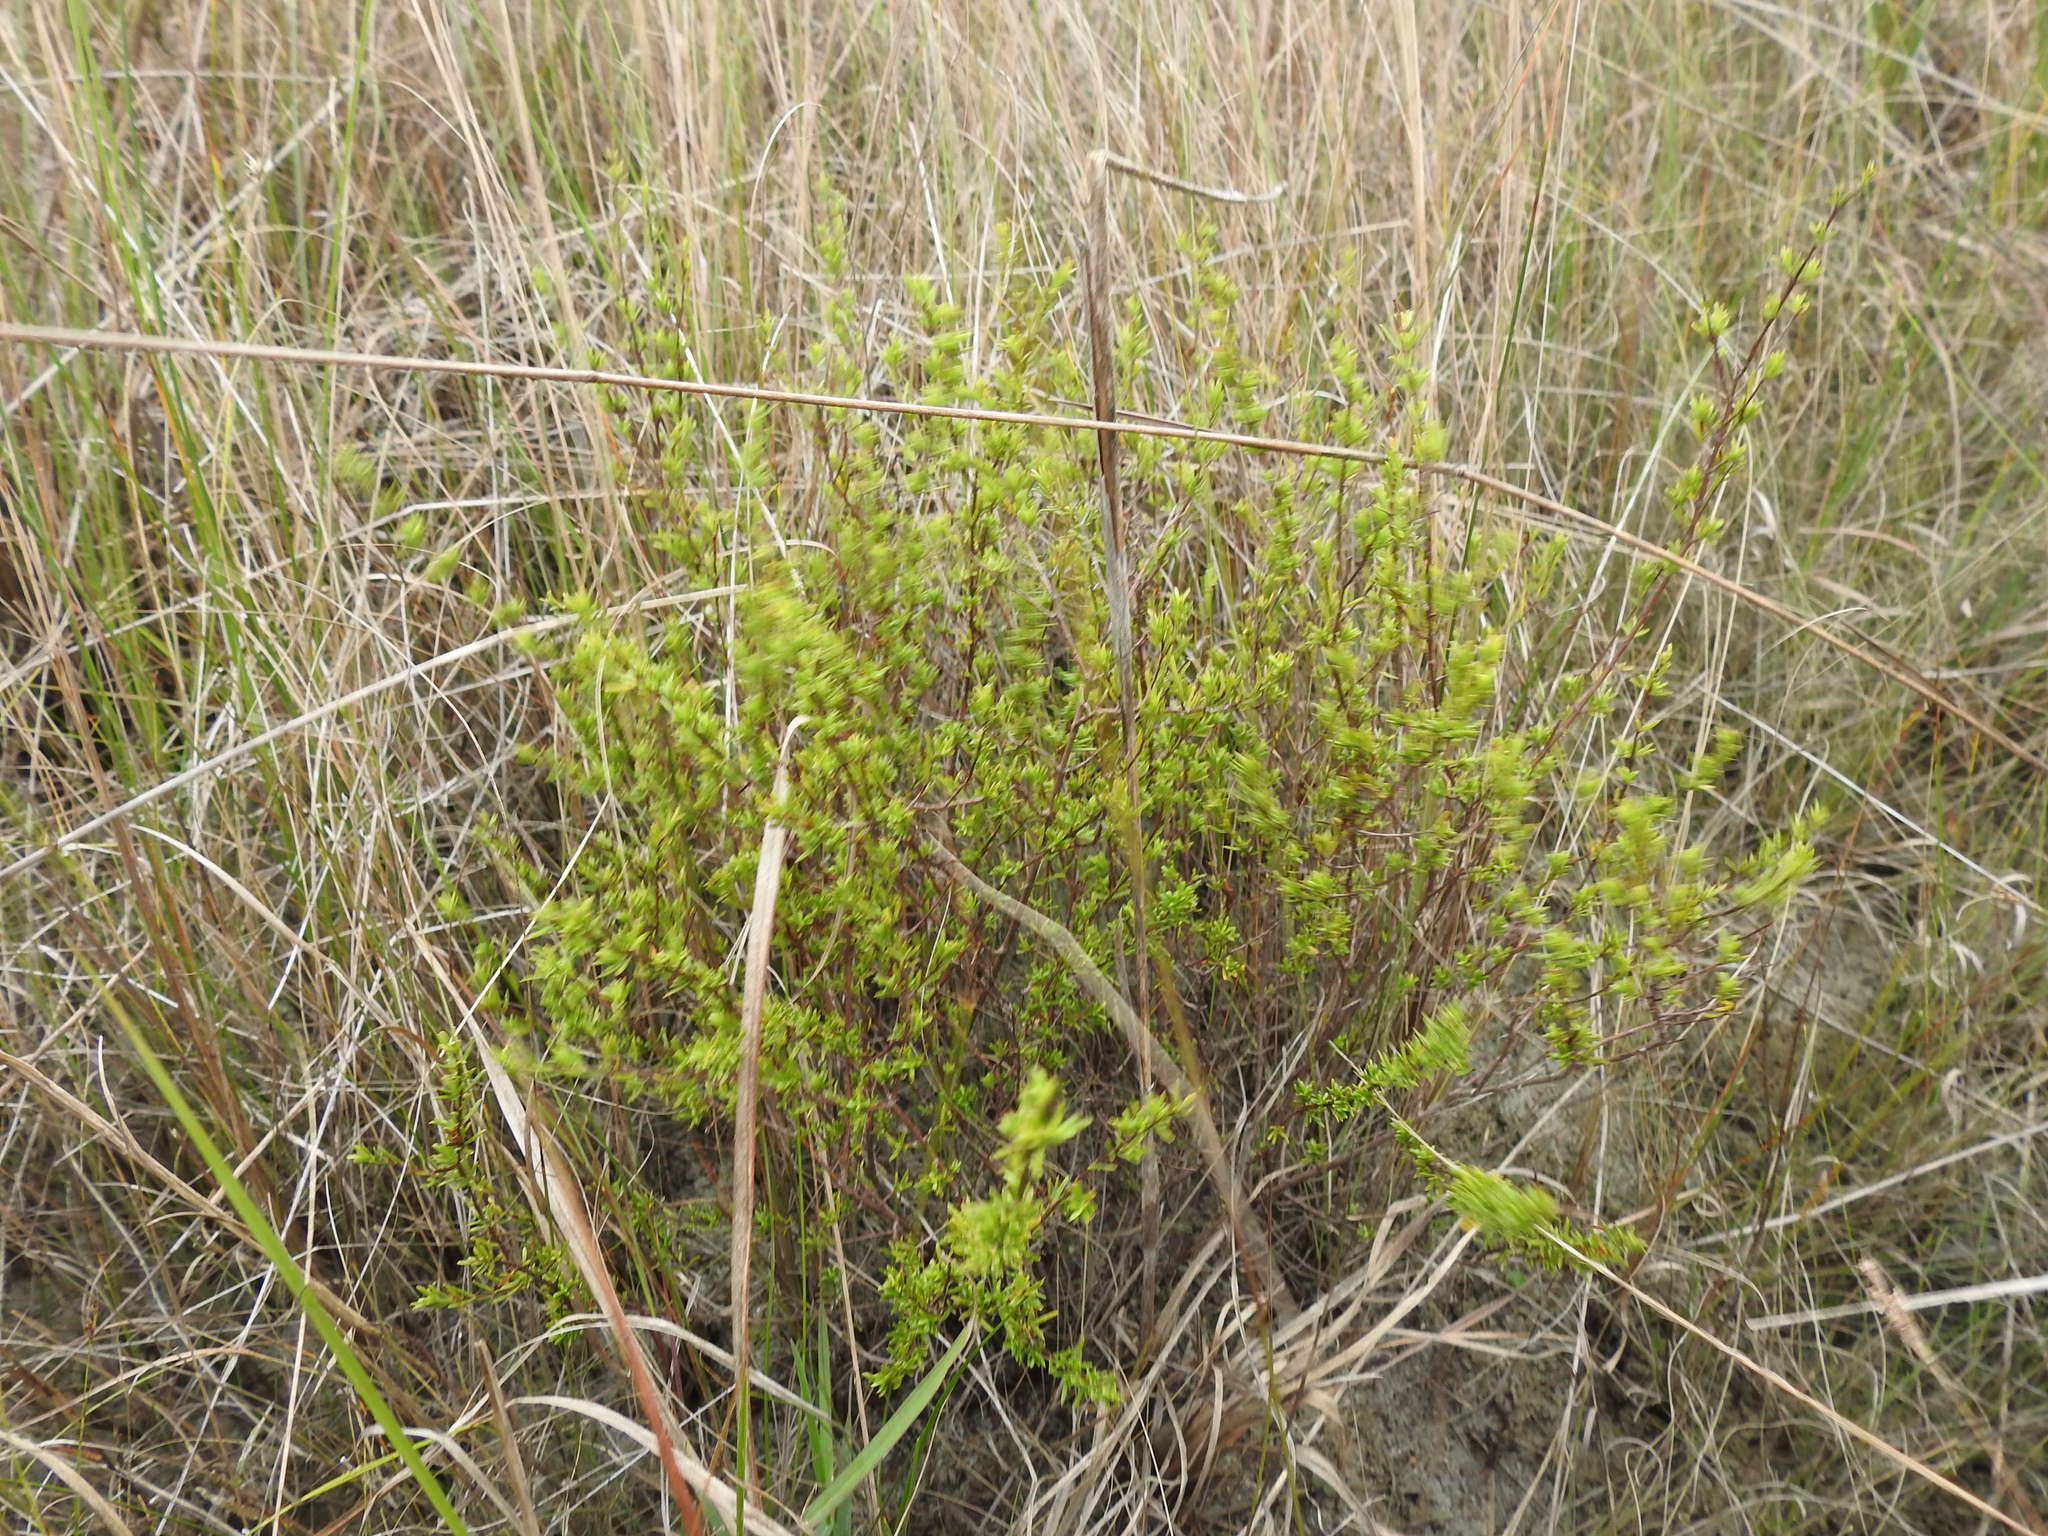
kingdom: Plantae
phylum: Tracheophyta
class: Magnoliopsida
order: Malpighiales
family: Hypericaceae
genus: Hypericum
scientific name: Hypericum limosum
